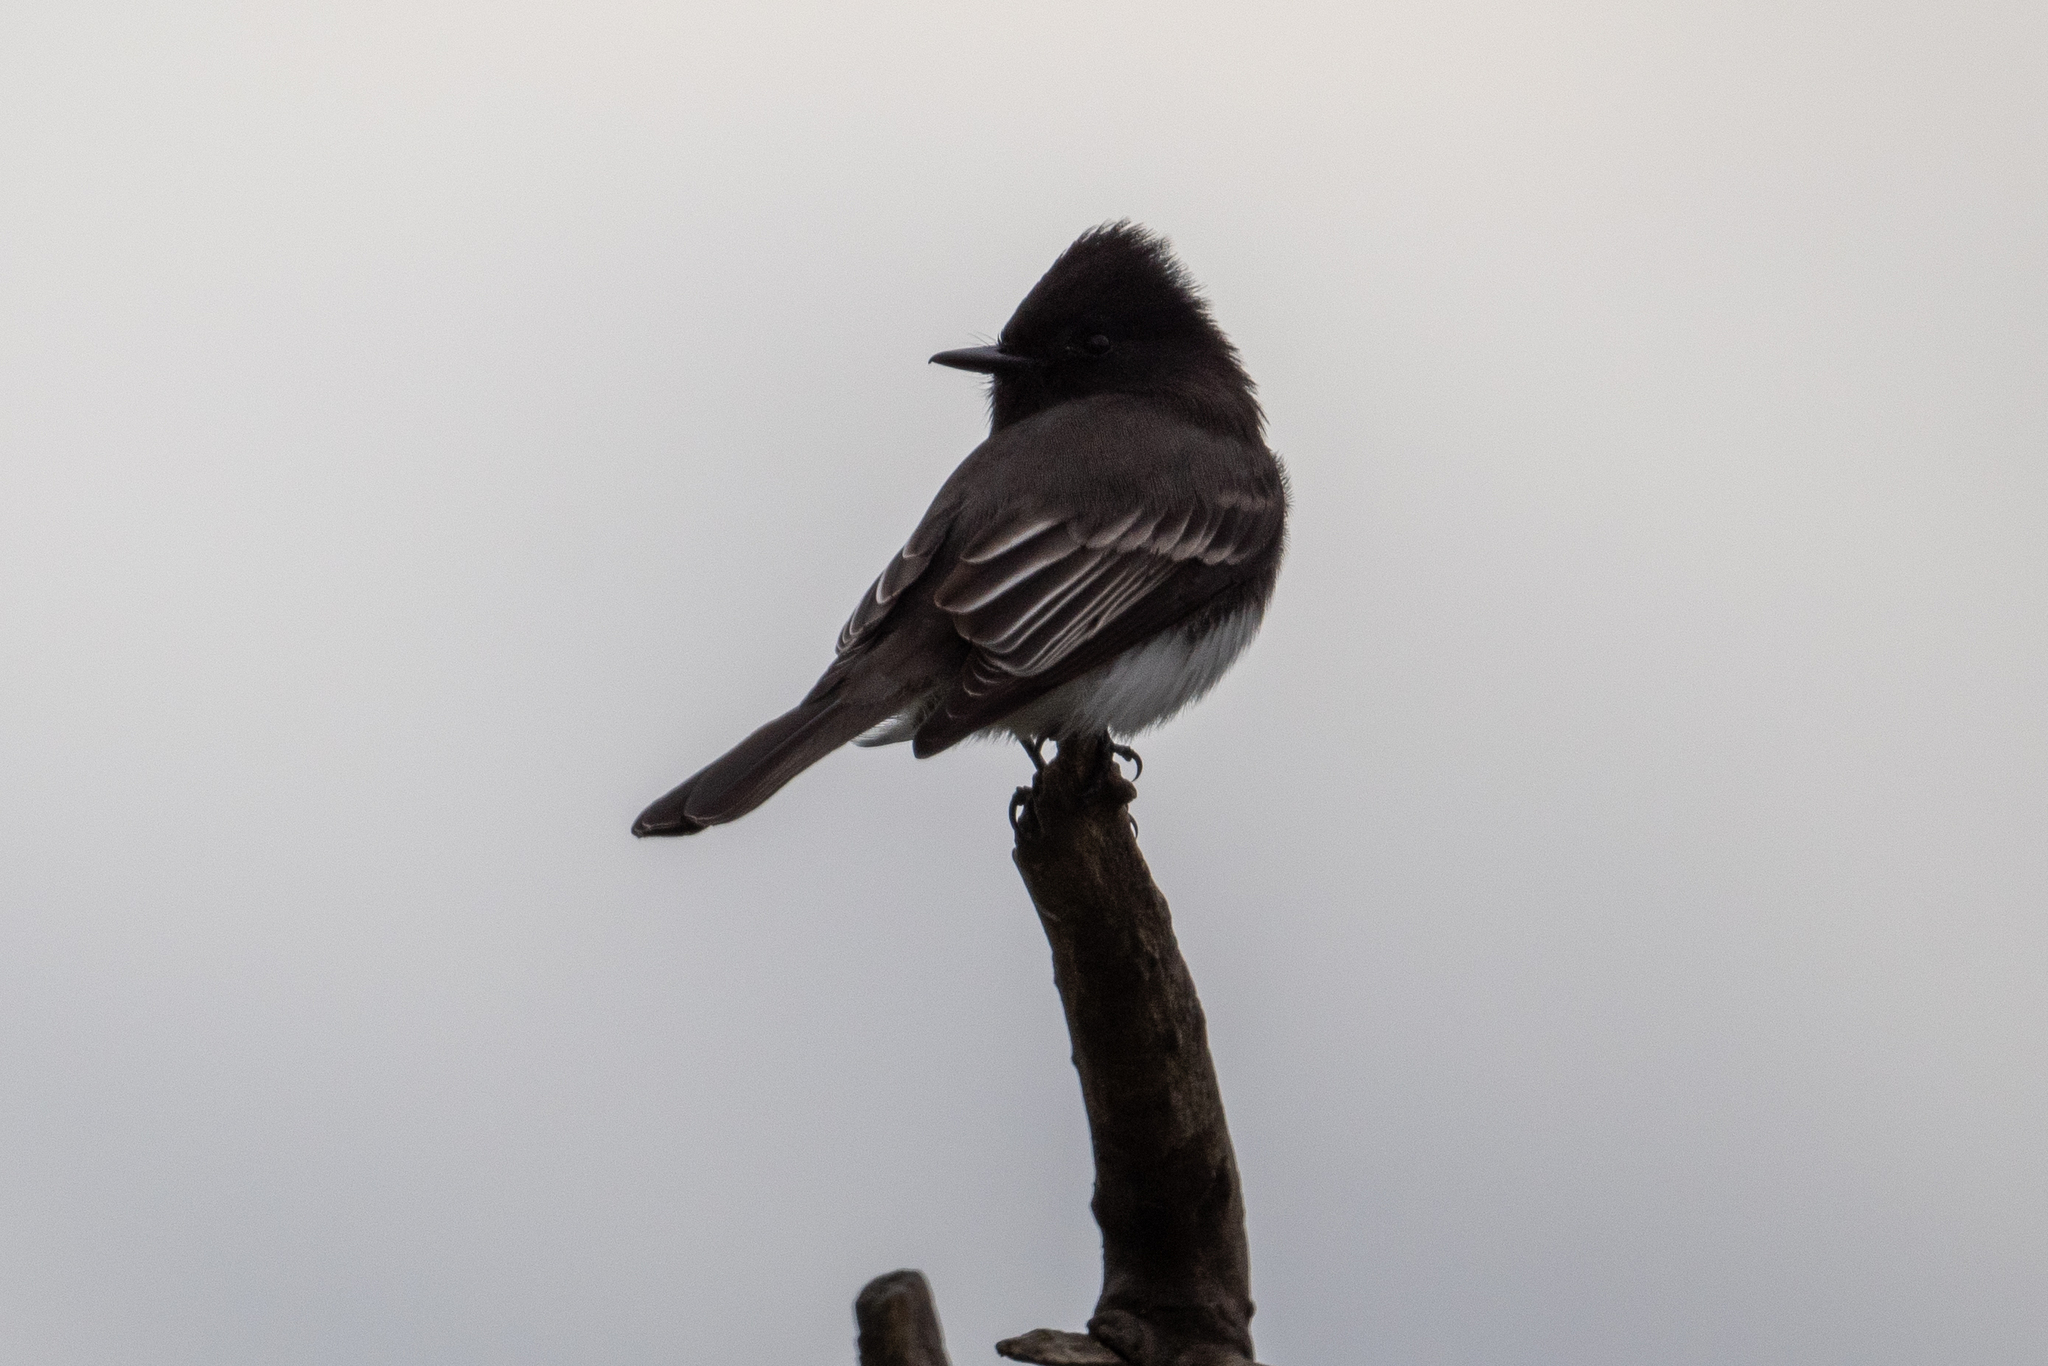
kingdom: Animalia
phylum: Chordata
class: Aves
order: Passeriformes
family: Tyrannidae
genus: Sayornis
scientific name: Sayornis nigricans
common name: Black phoebe
